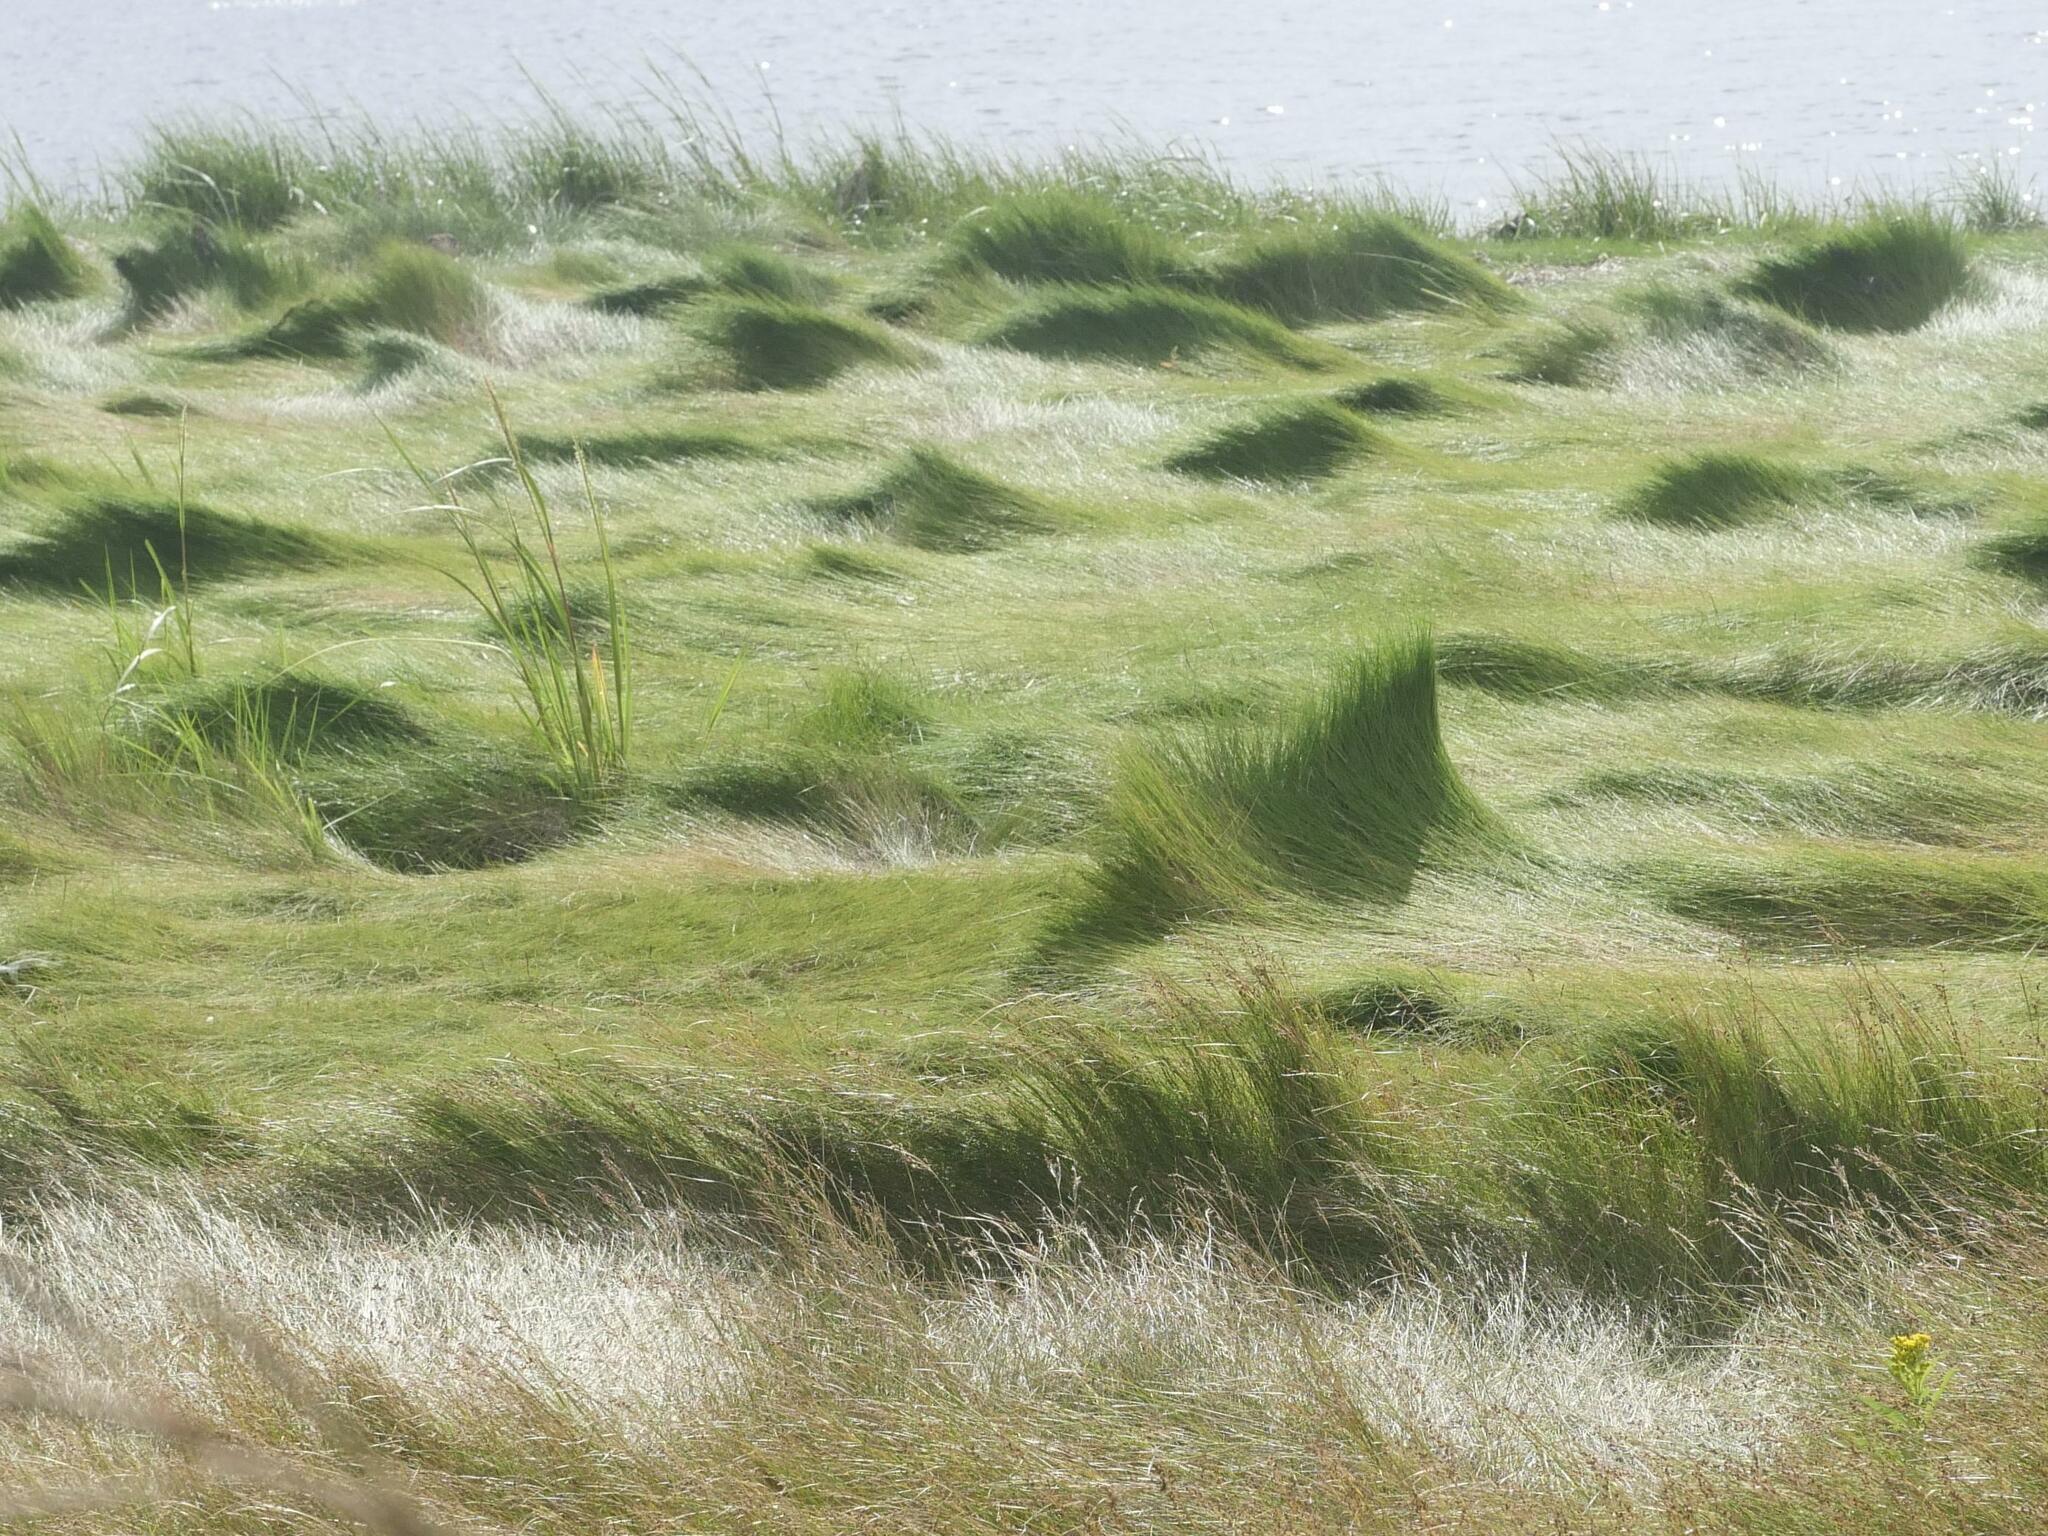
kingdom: Plantae
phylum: Tracheophyta
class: Liliopsida
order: Poales
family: Poaceae
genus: Sporobolus
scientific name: Sporobolus pumilus
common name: Highwater grass
